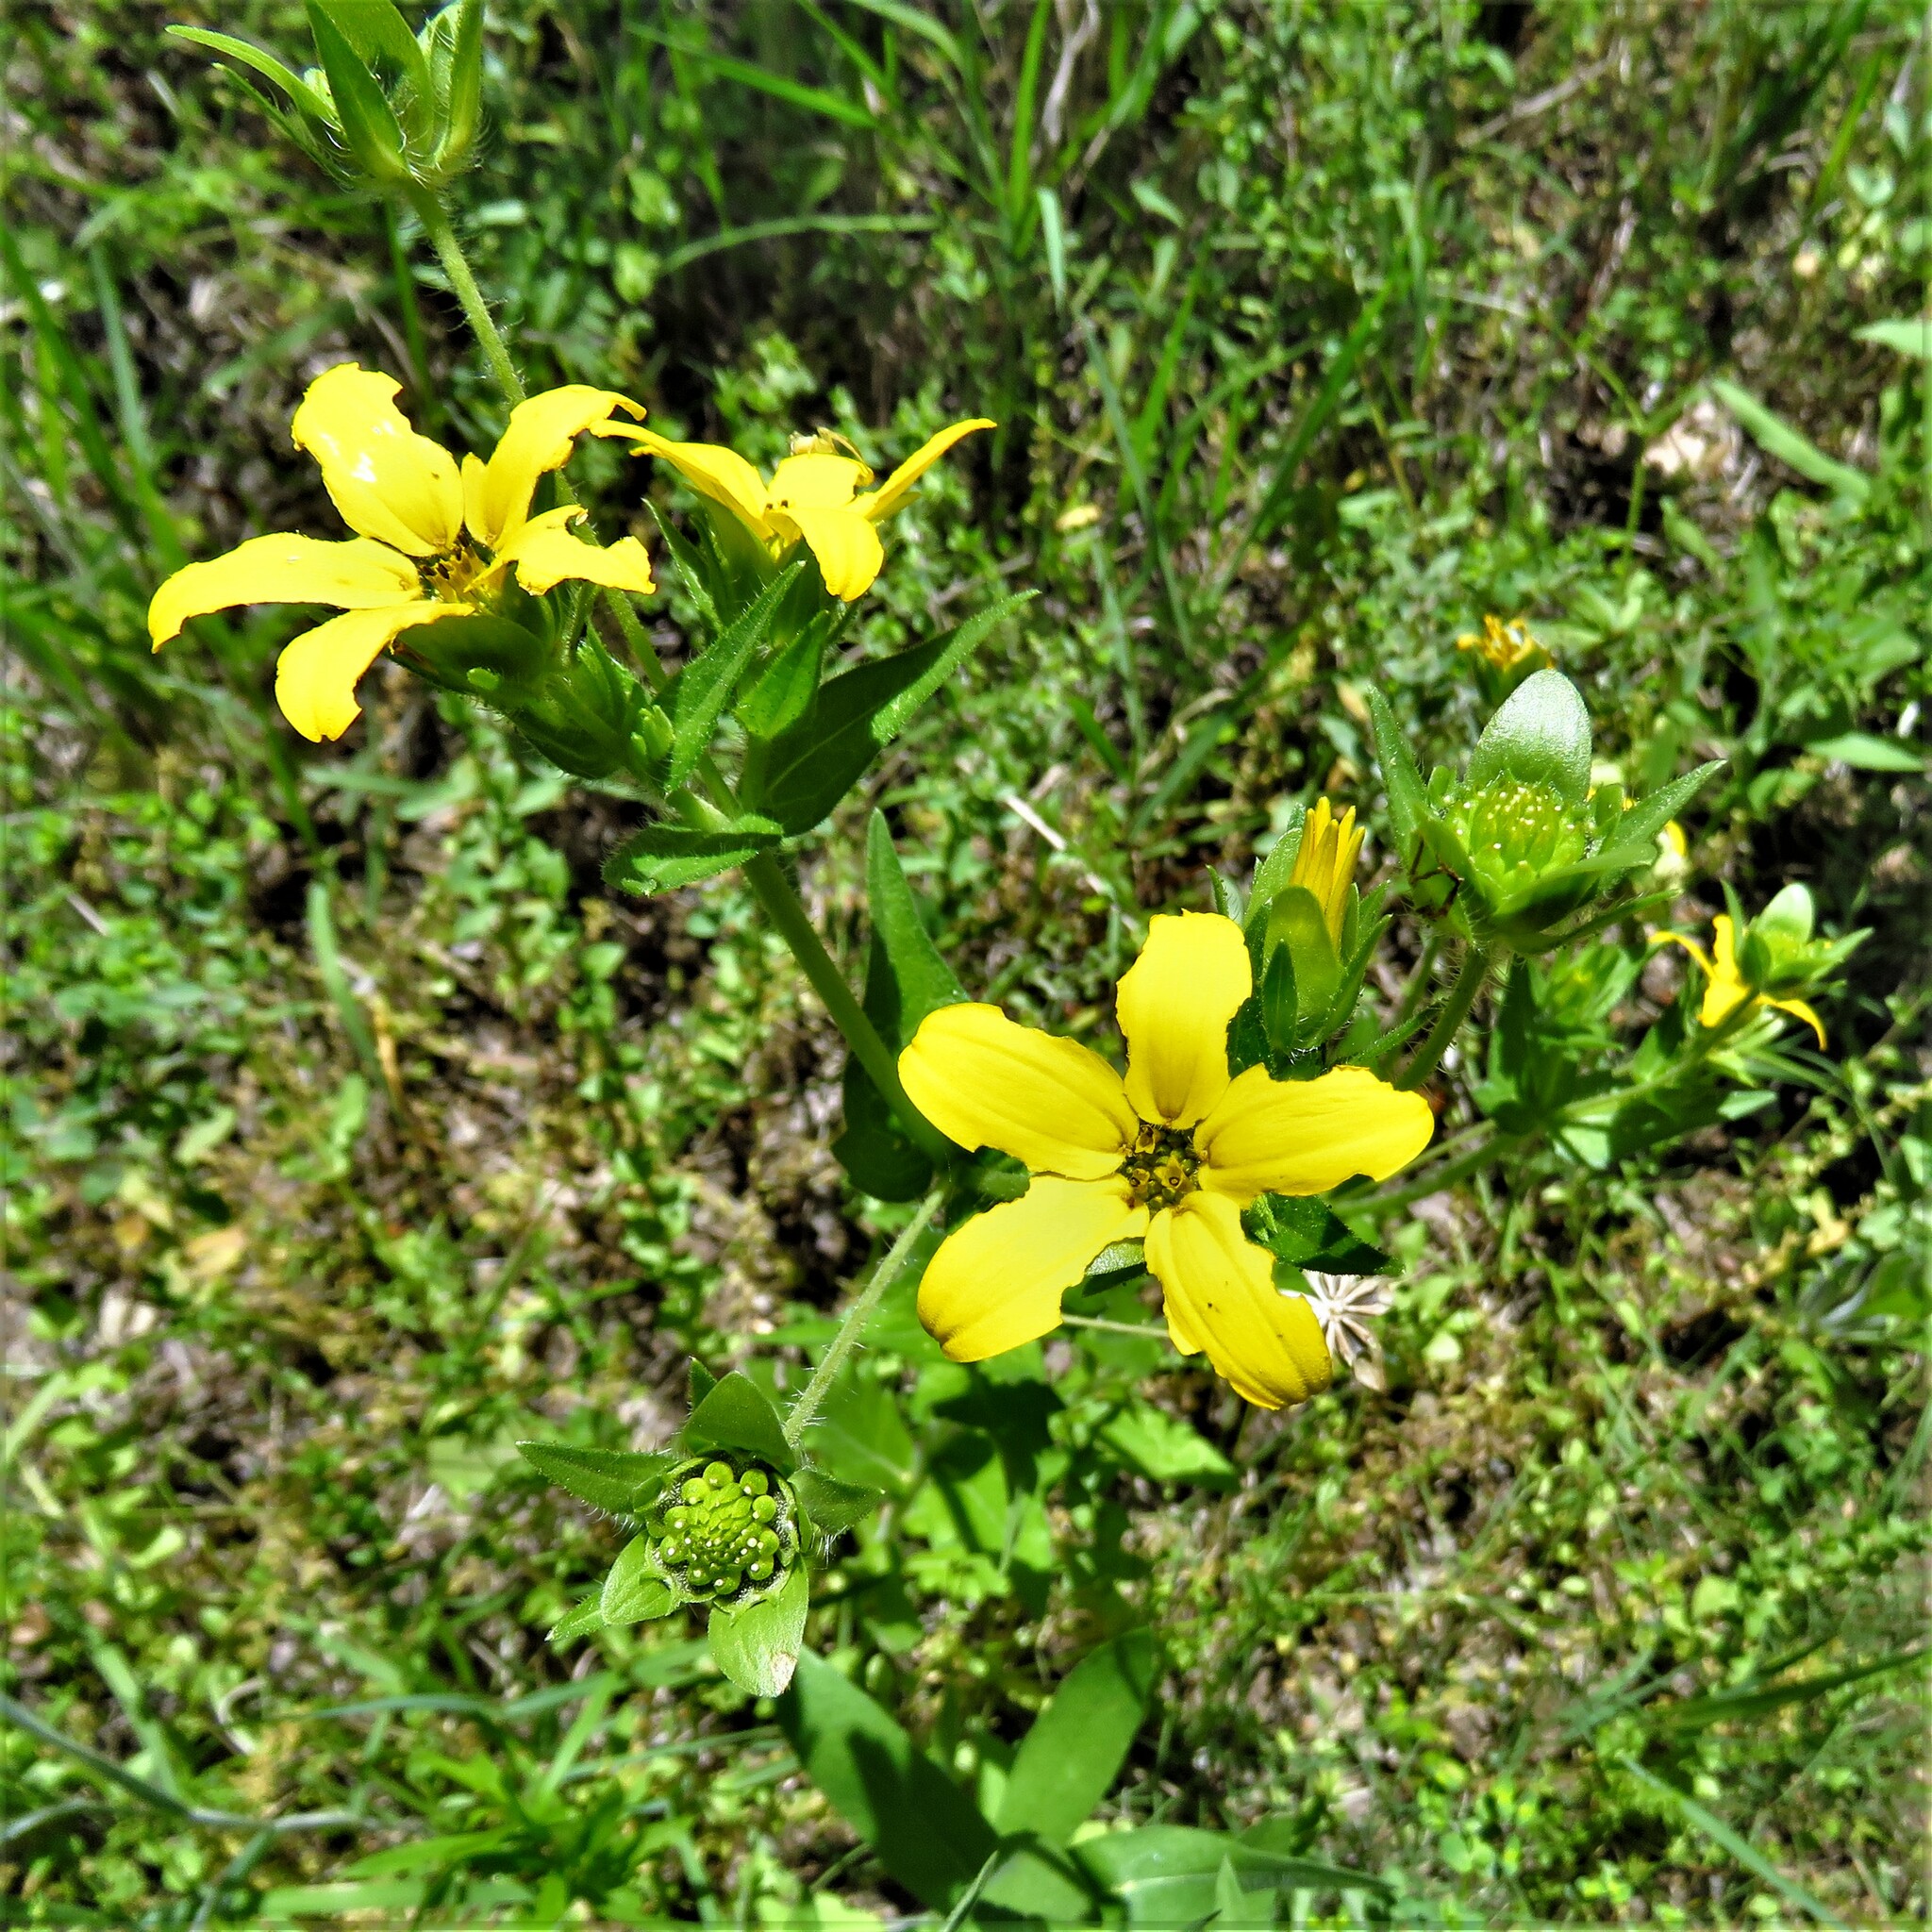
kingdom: Plantae
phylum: Tracheophyta
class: Magnoliopsida
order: Asterales
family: Asteraceae
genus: Lindheimera
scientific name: Lindheimera texana
